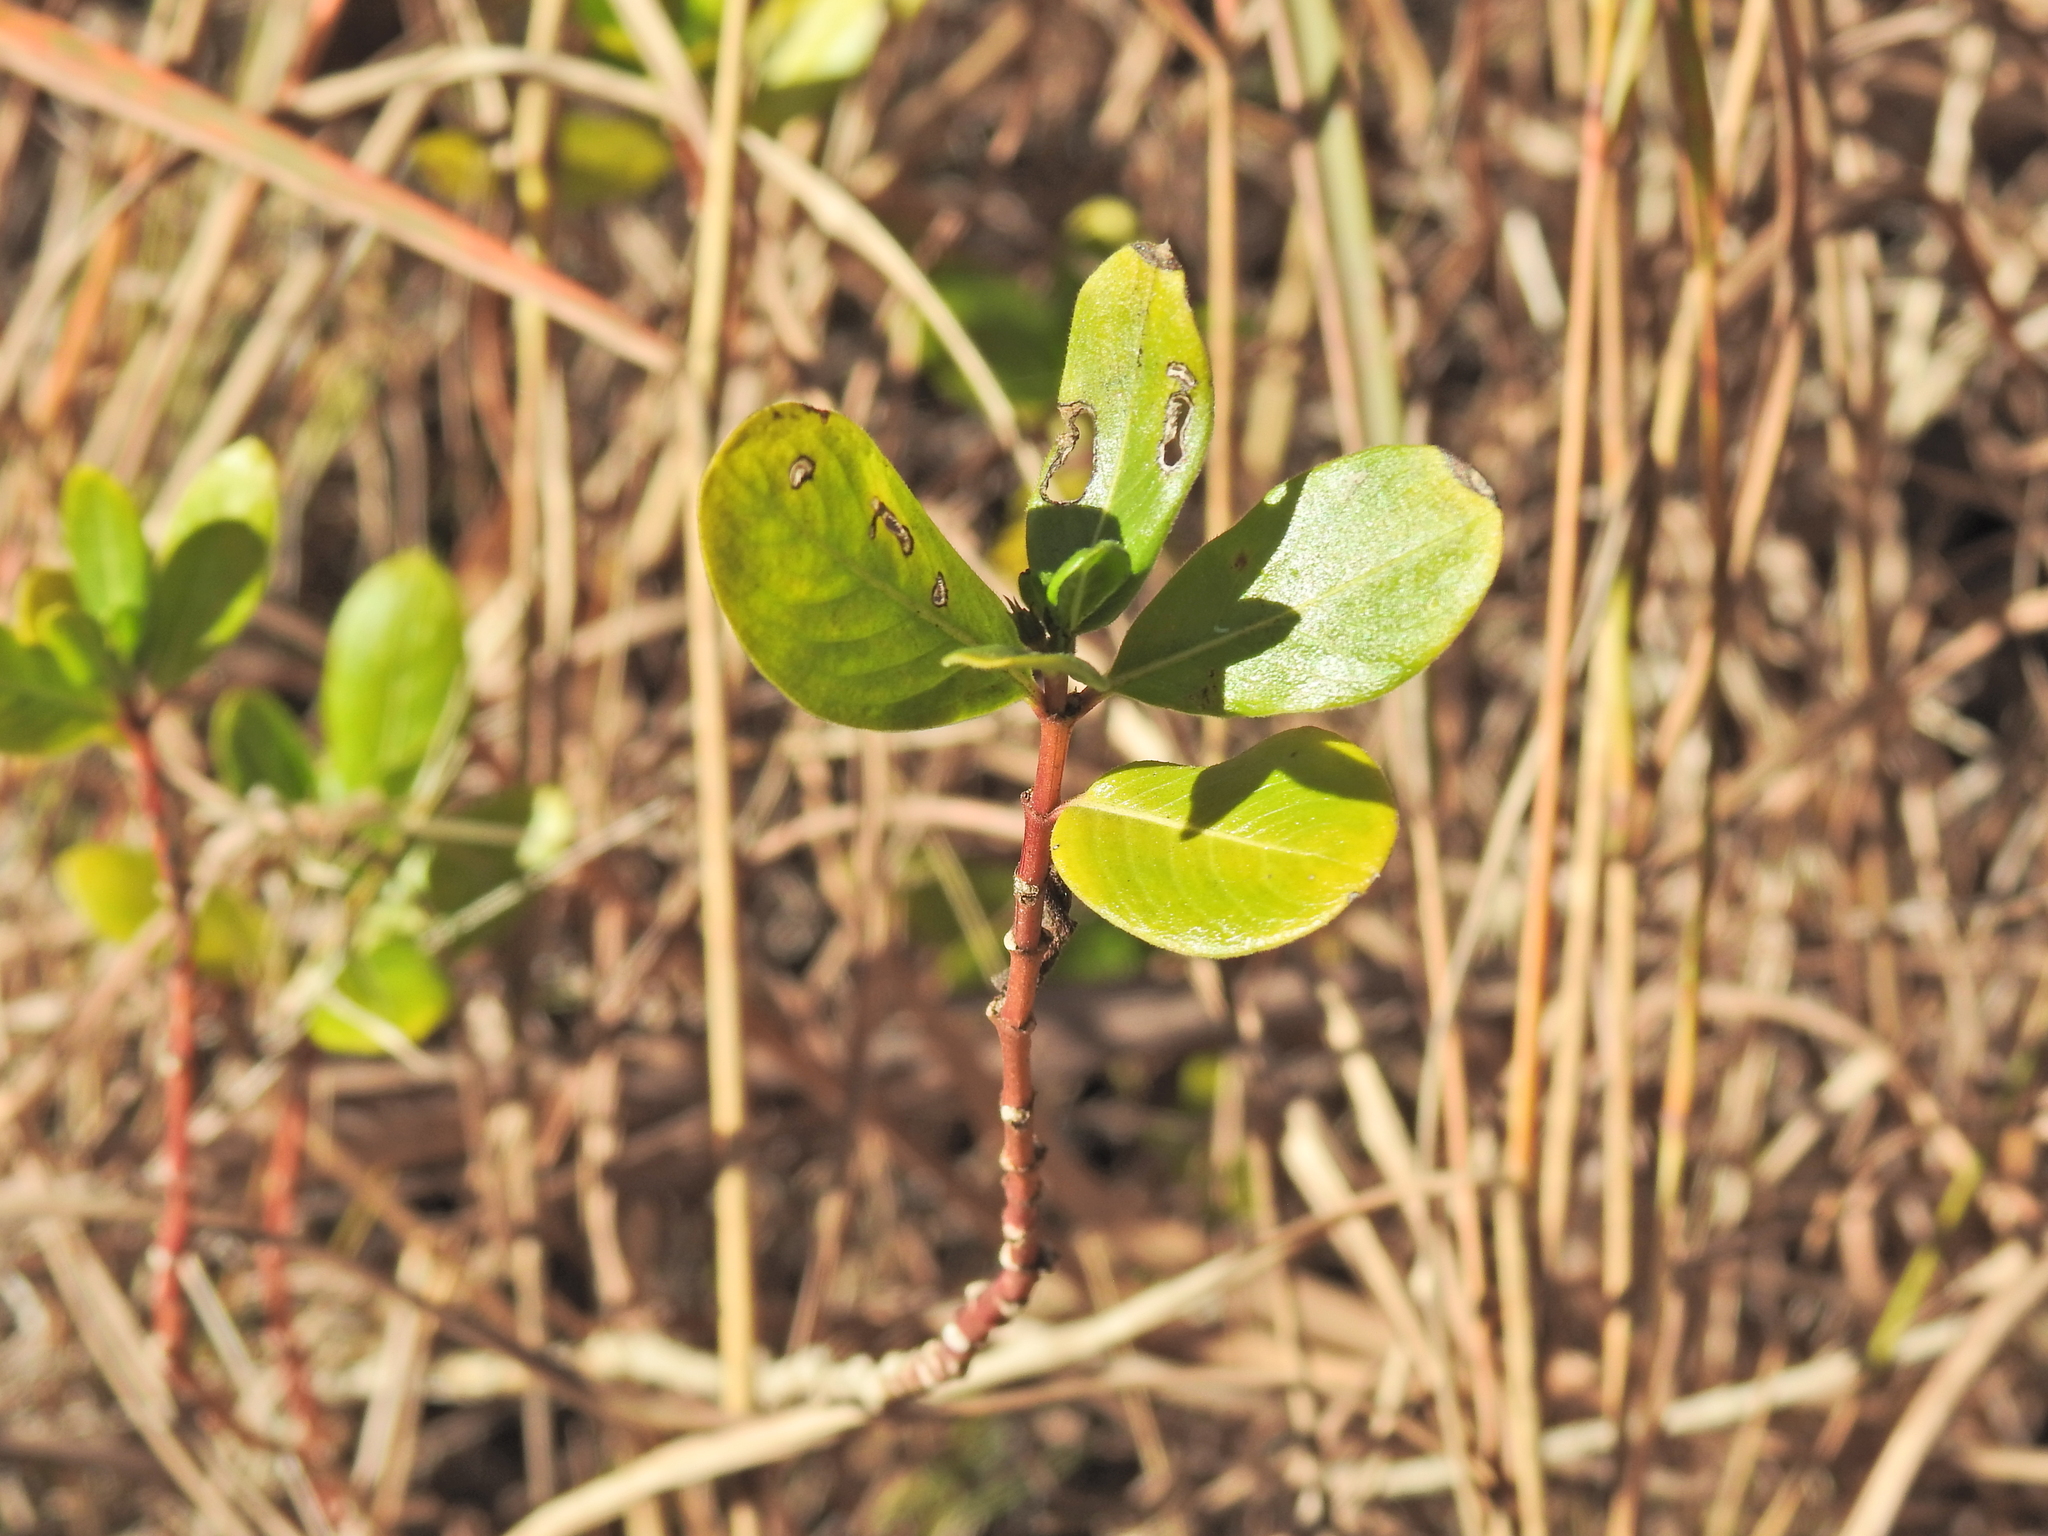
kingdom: Plantae
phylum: Tracheophyta
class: Magnoliopsida
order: Gentianales
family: Apocynaceae
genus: Catharanthus
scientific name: Catharanthus roseus
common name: Madagascar periwinkle
